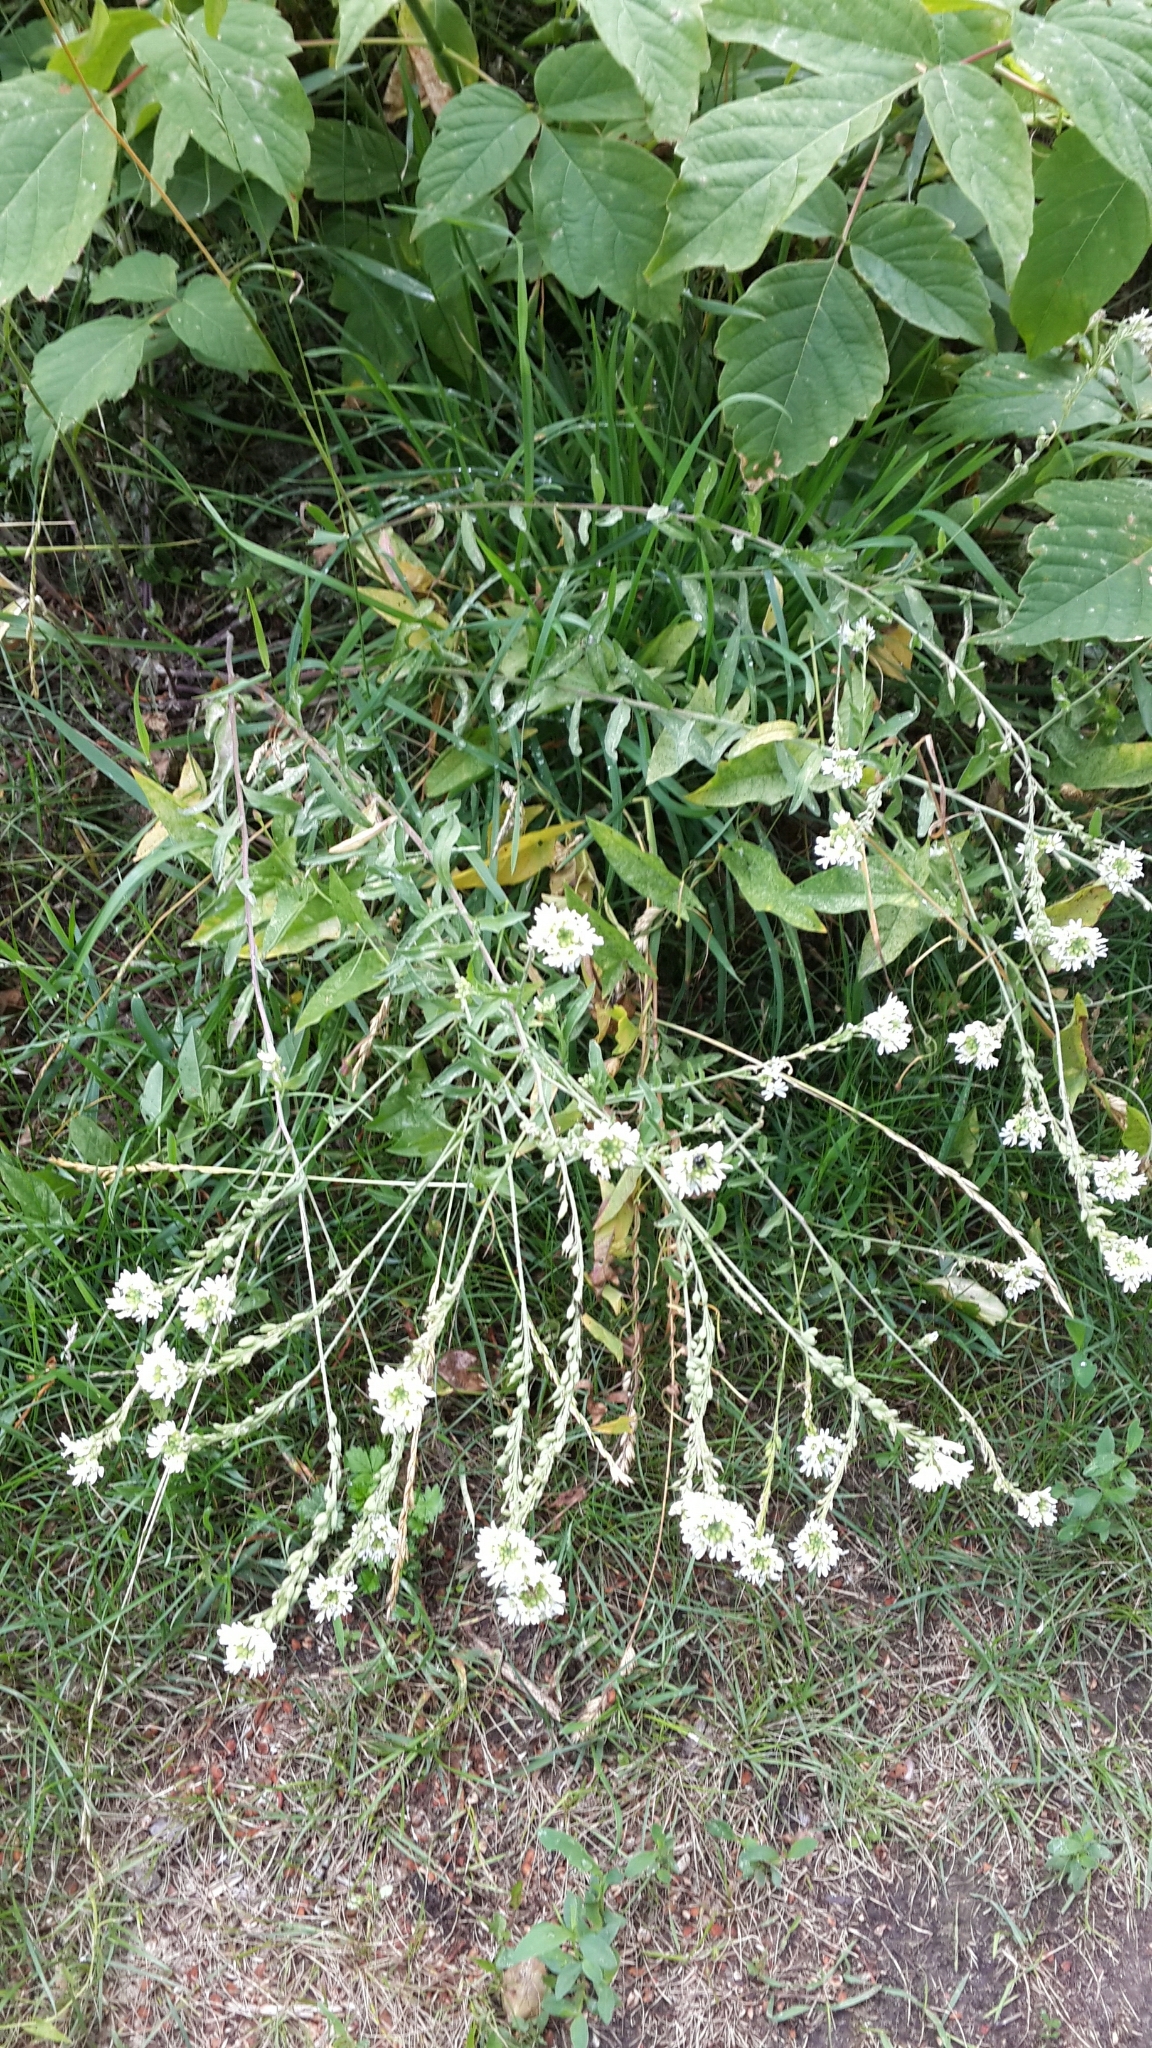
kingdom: Plantae
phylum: Tracheophyta
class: Magnoliopsida
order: Brassicales
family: Brassicaceae
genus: Berteroa
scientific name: Berteroa incana
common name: Hoary alison
